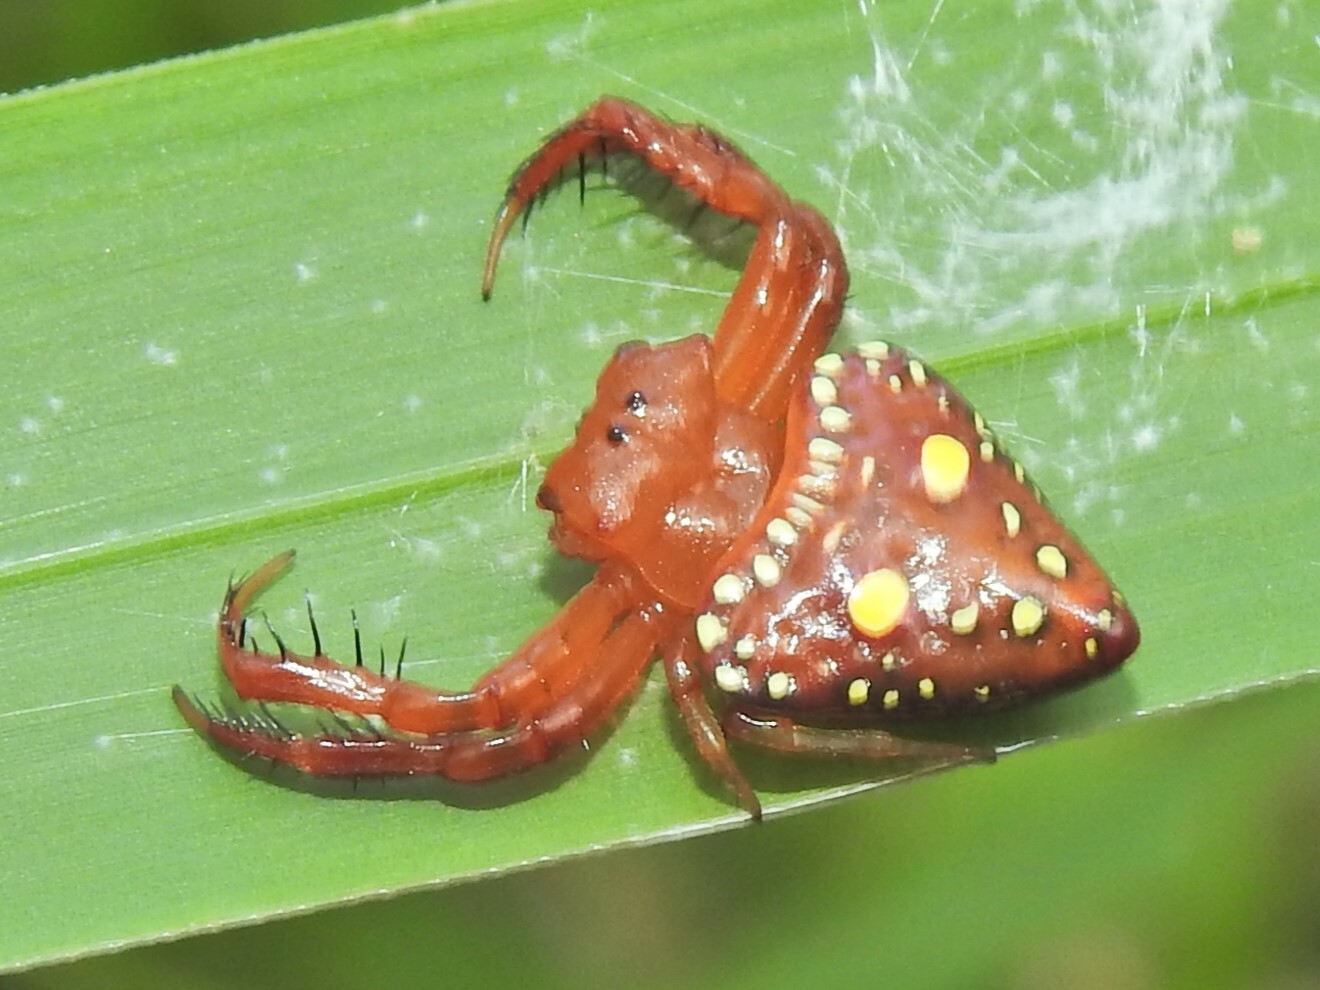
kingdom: Animalia
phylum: Arthropoda
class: Arachnida
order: Araneae
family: Arkyidae
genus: Arkys
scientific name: Arkys lancearius
